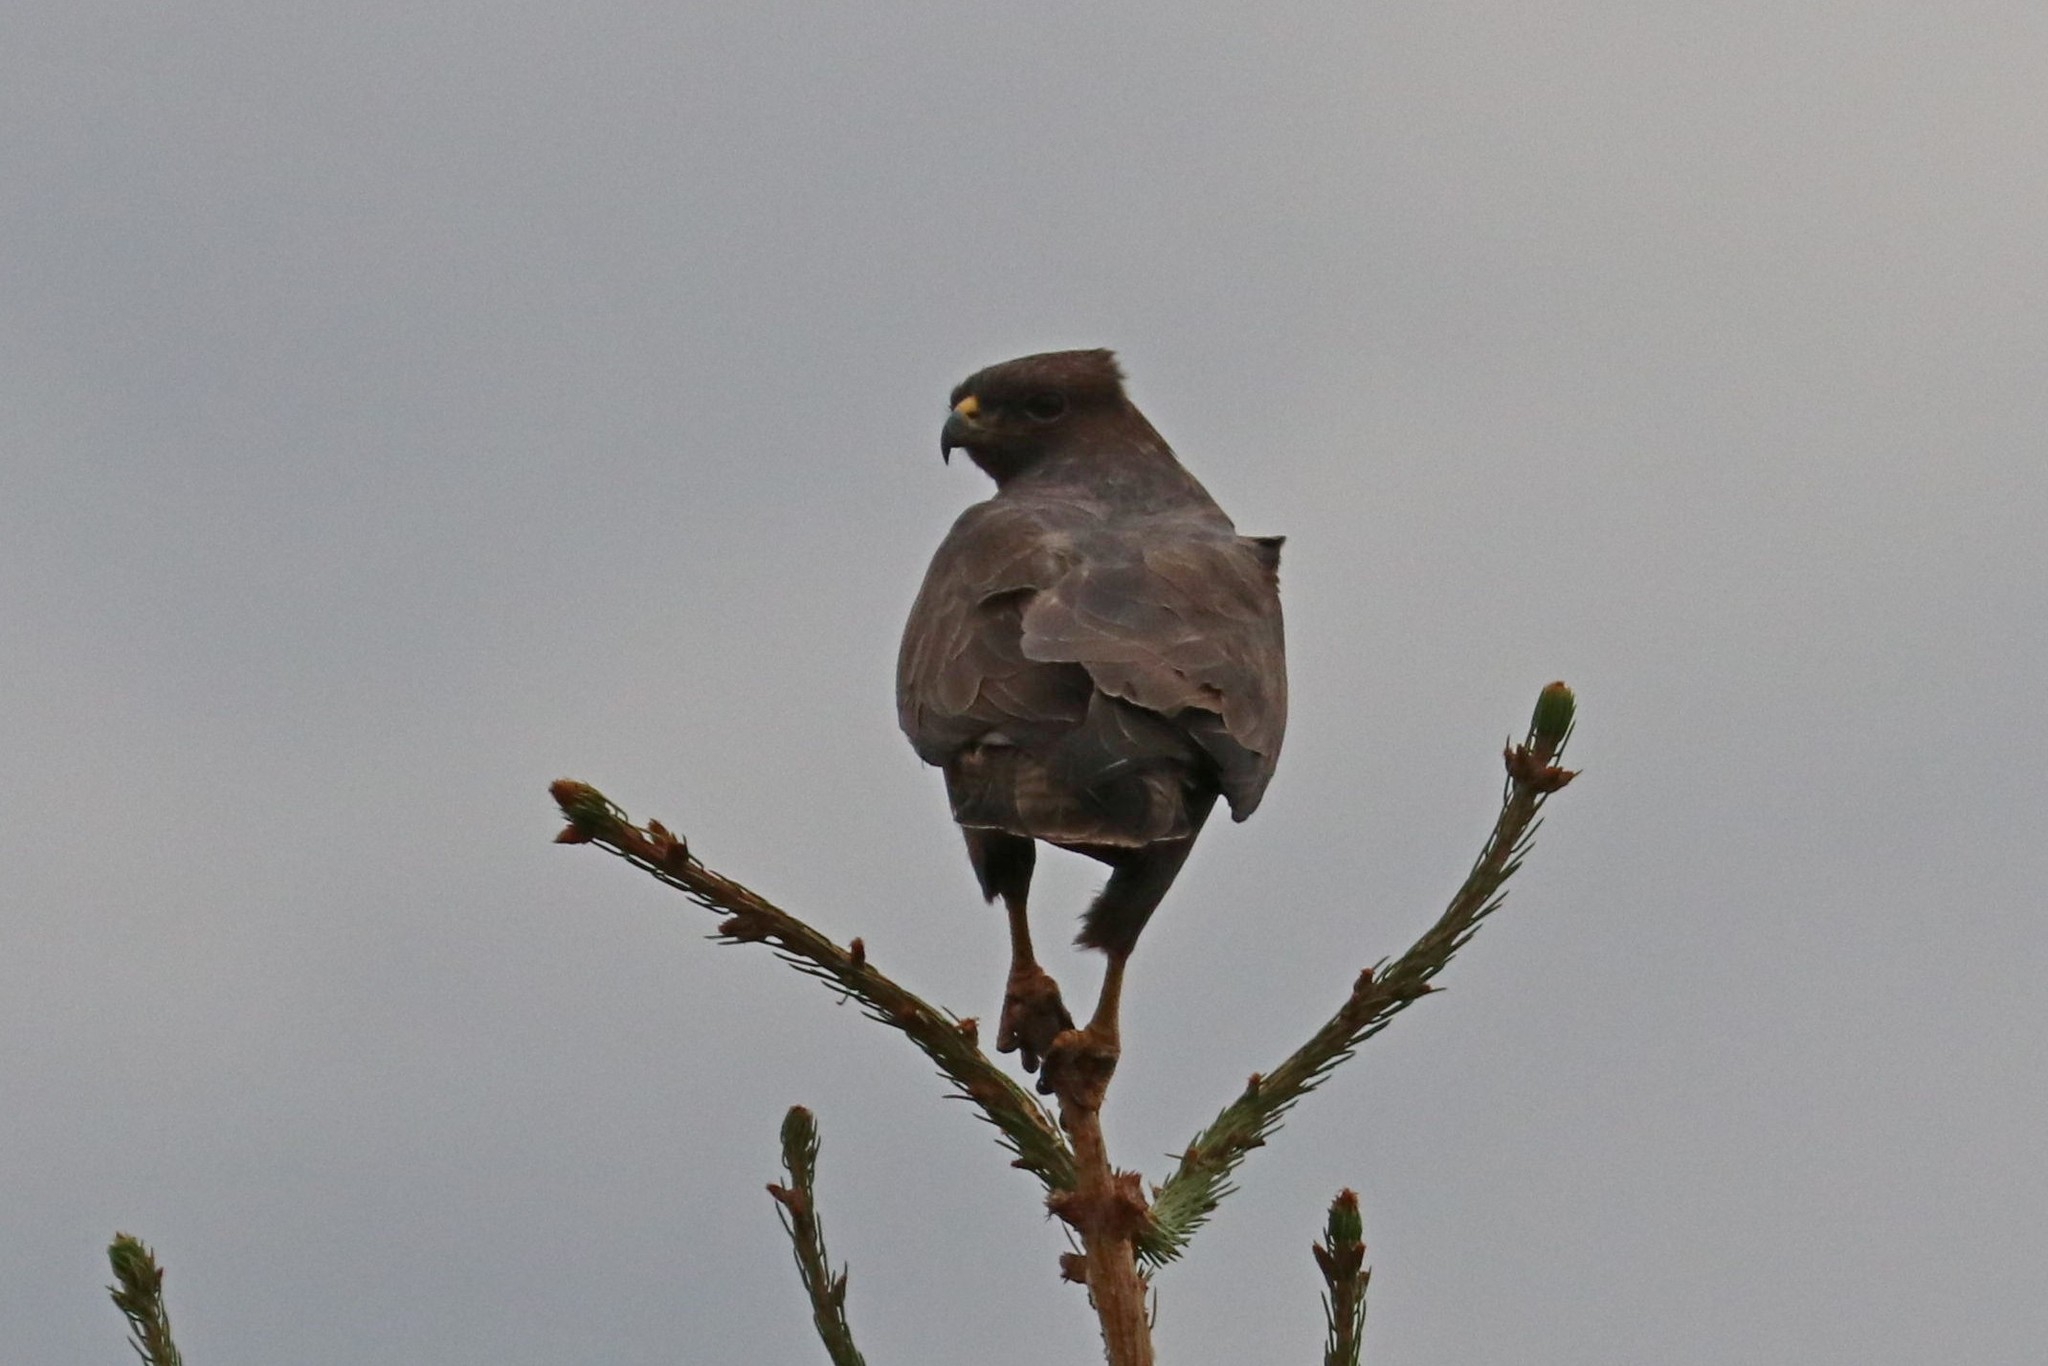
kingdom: Animalia
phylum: Chordata
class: Aves
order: Accipitriformes
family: Accipitridae
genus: Buteo
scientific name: Buteo buteo
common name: Common buzzard
